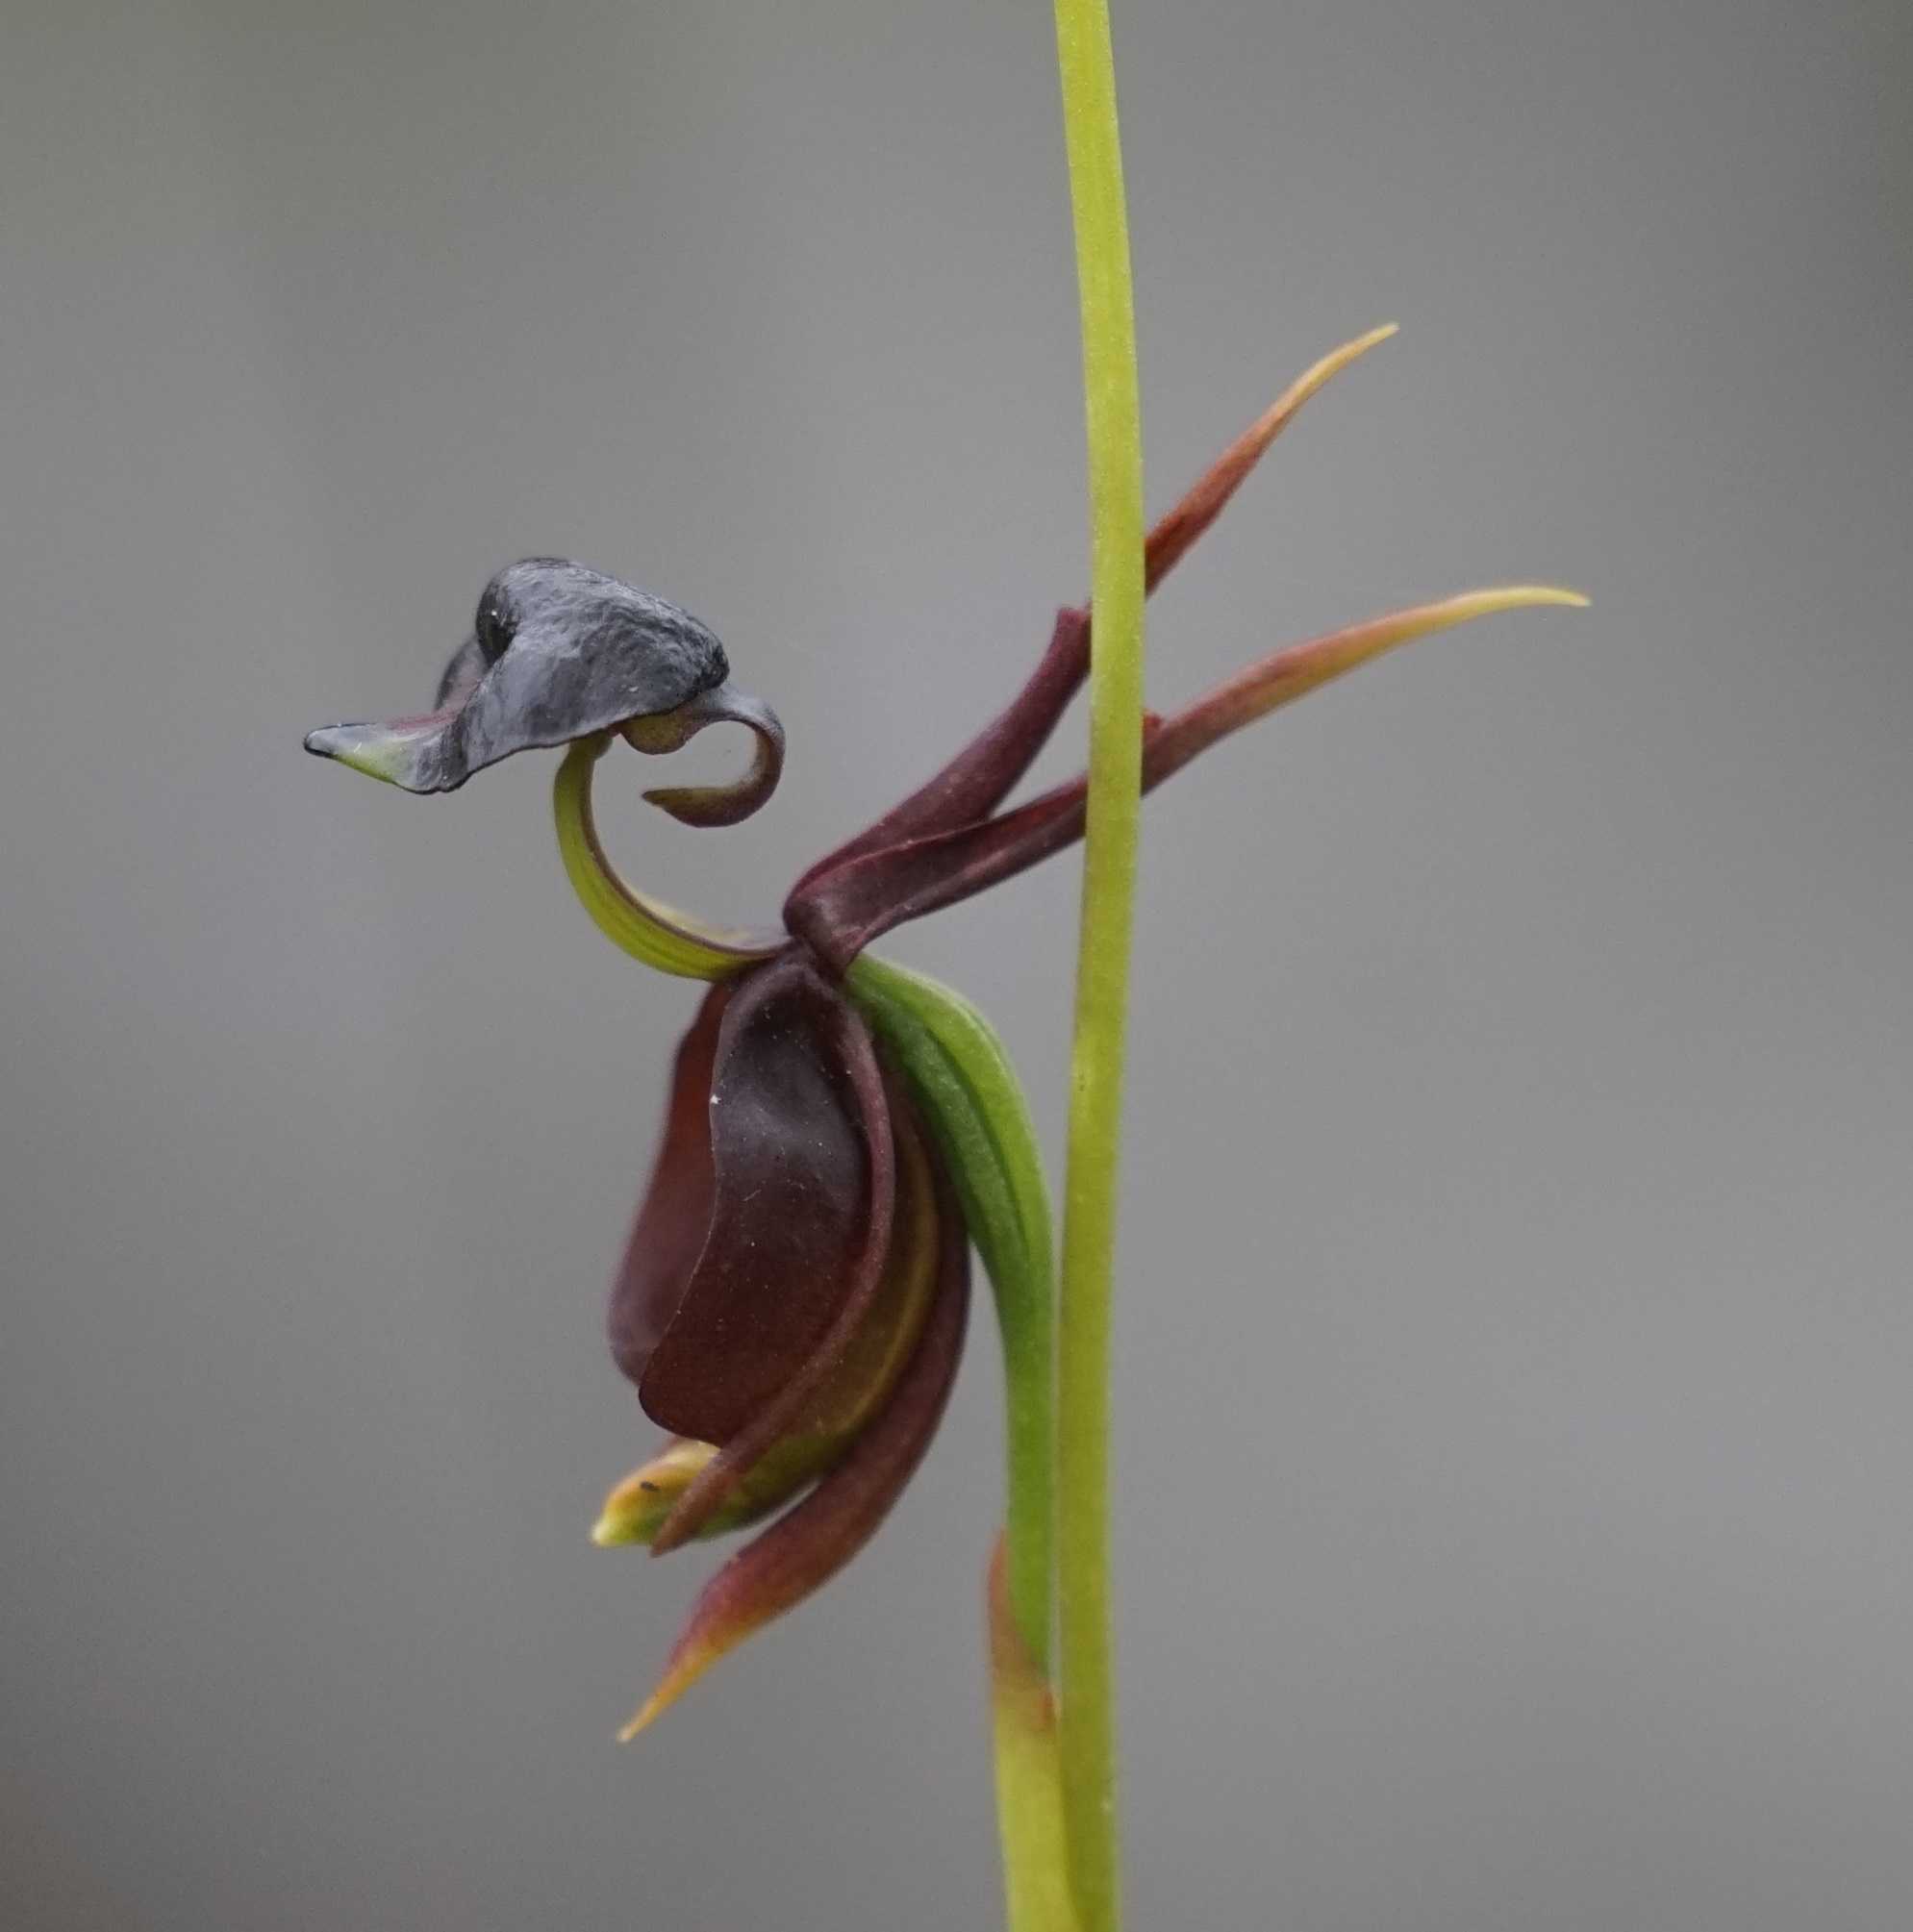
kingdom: Plantae
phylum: Tracheophyta
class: Liliopsida
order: Asparagales
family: Orchidaceae
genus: Caleana
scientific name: Caleana major
